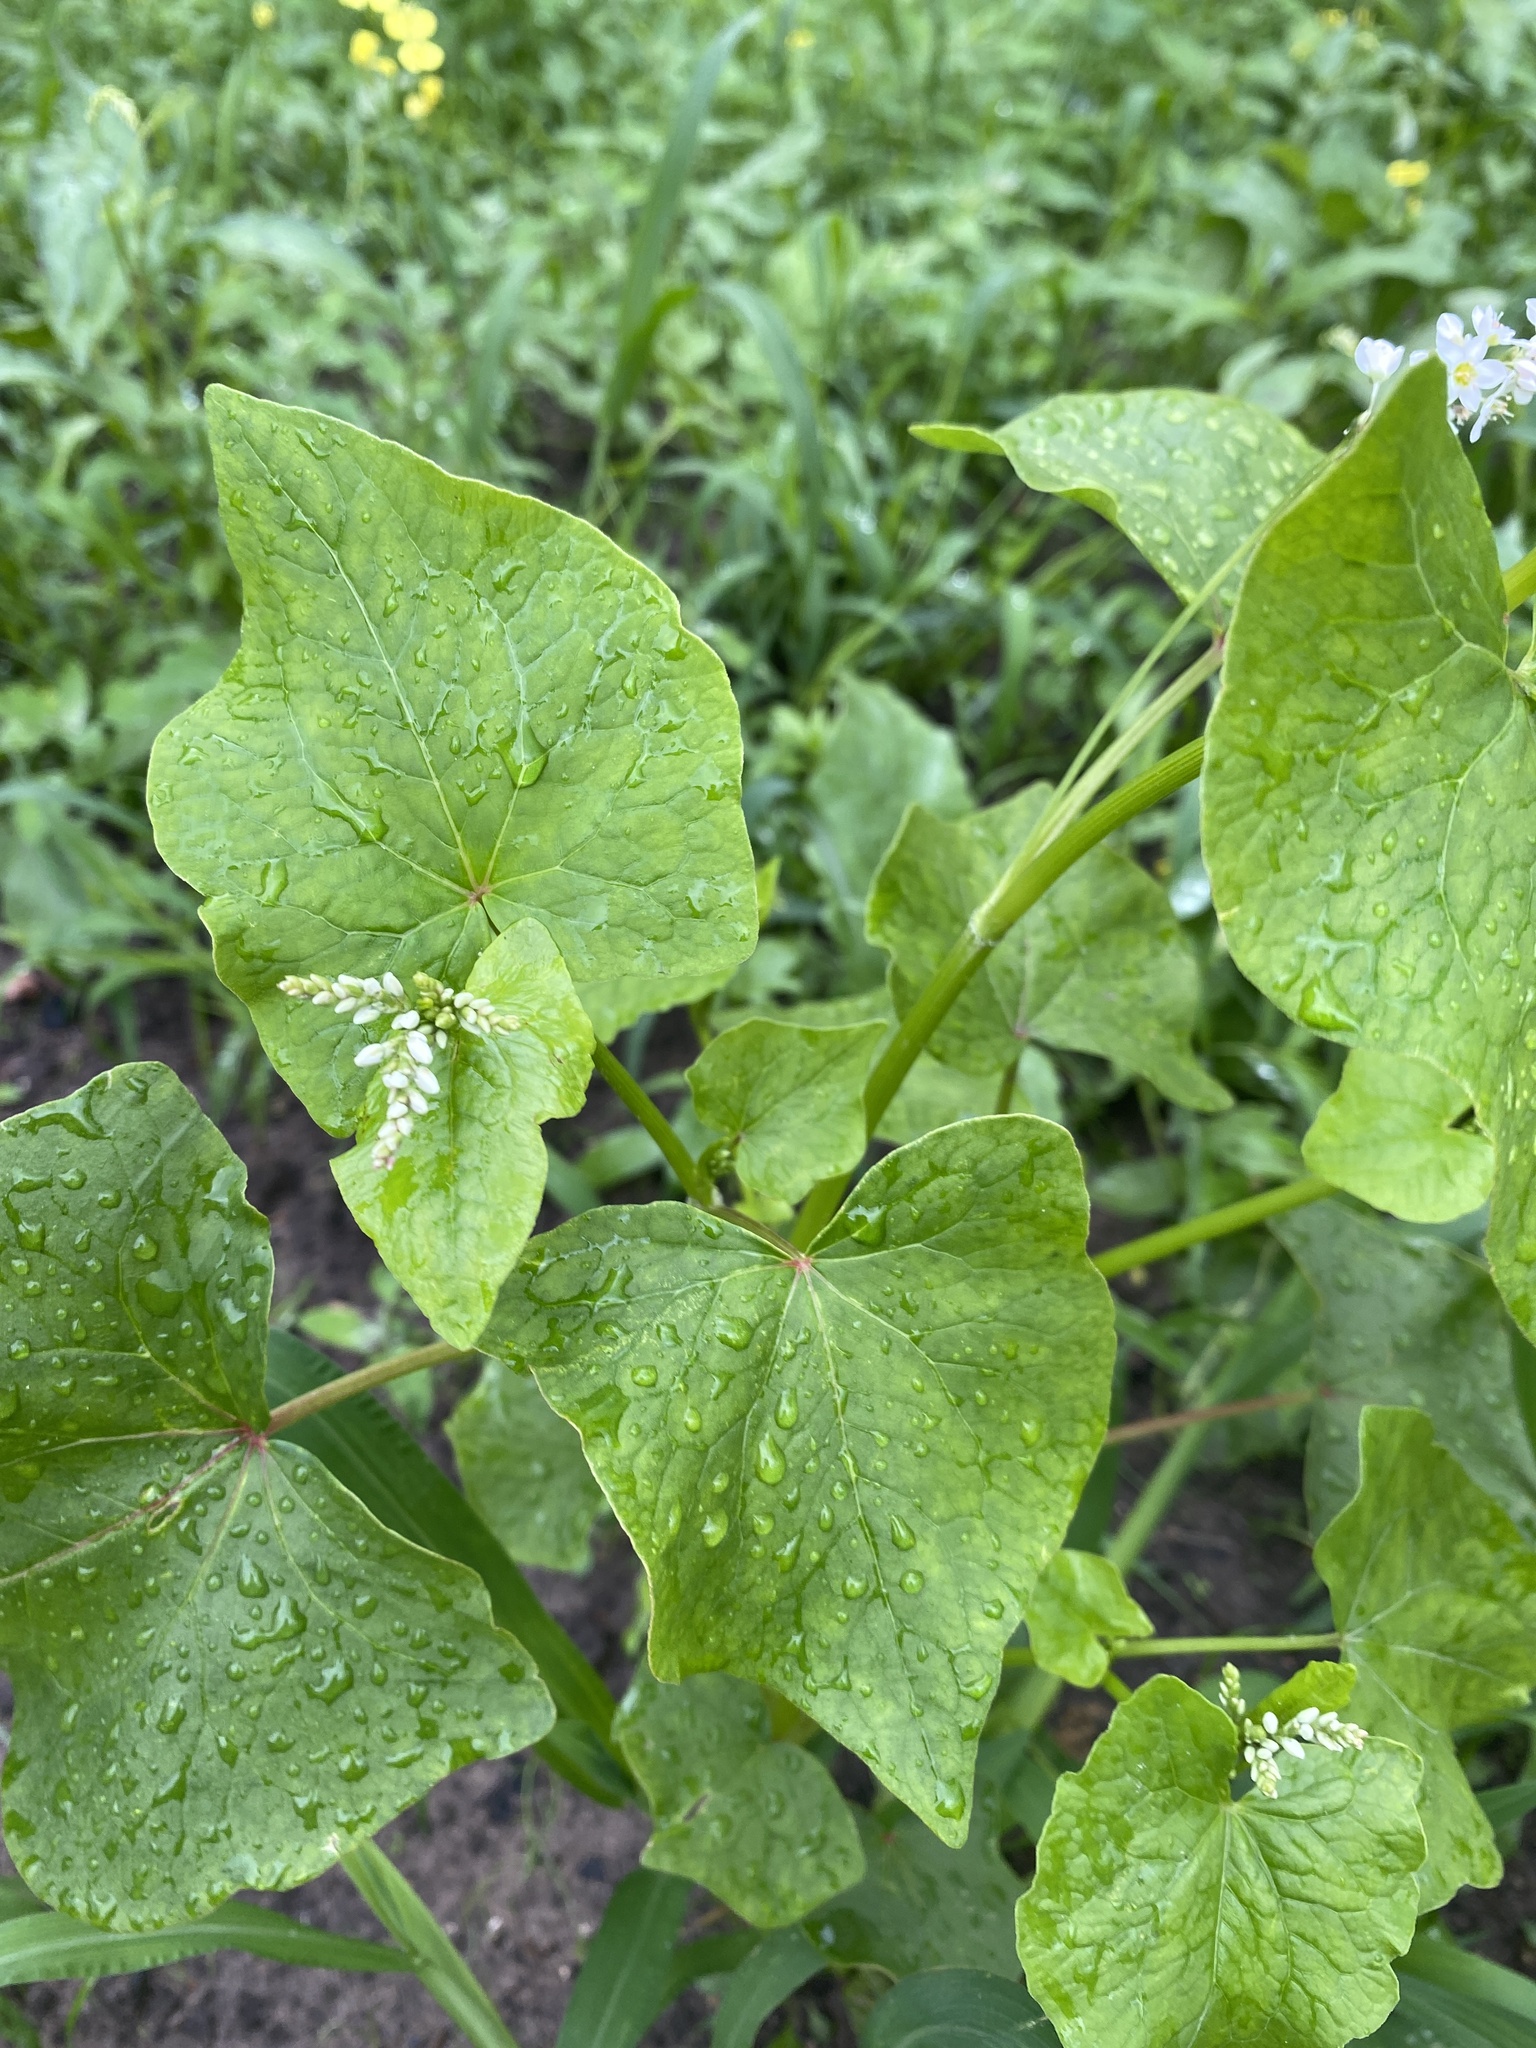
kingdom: Plantae
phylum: Tracheophyta
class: Magnoliopsida
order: Caryophyllales
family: Polygonaceae
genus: Fagopyrum
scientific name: Fagopyrum esculentum
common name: Buckwheat
